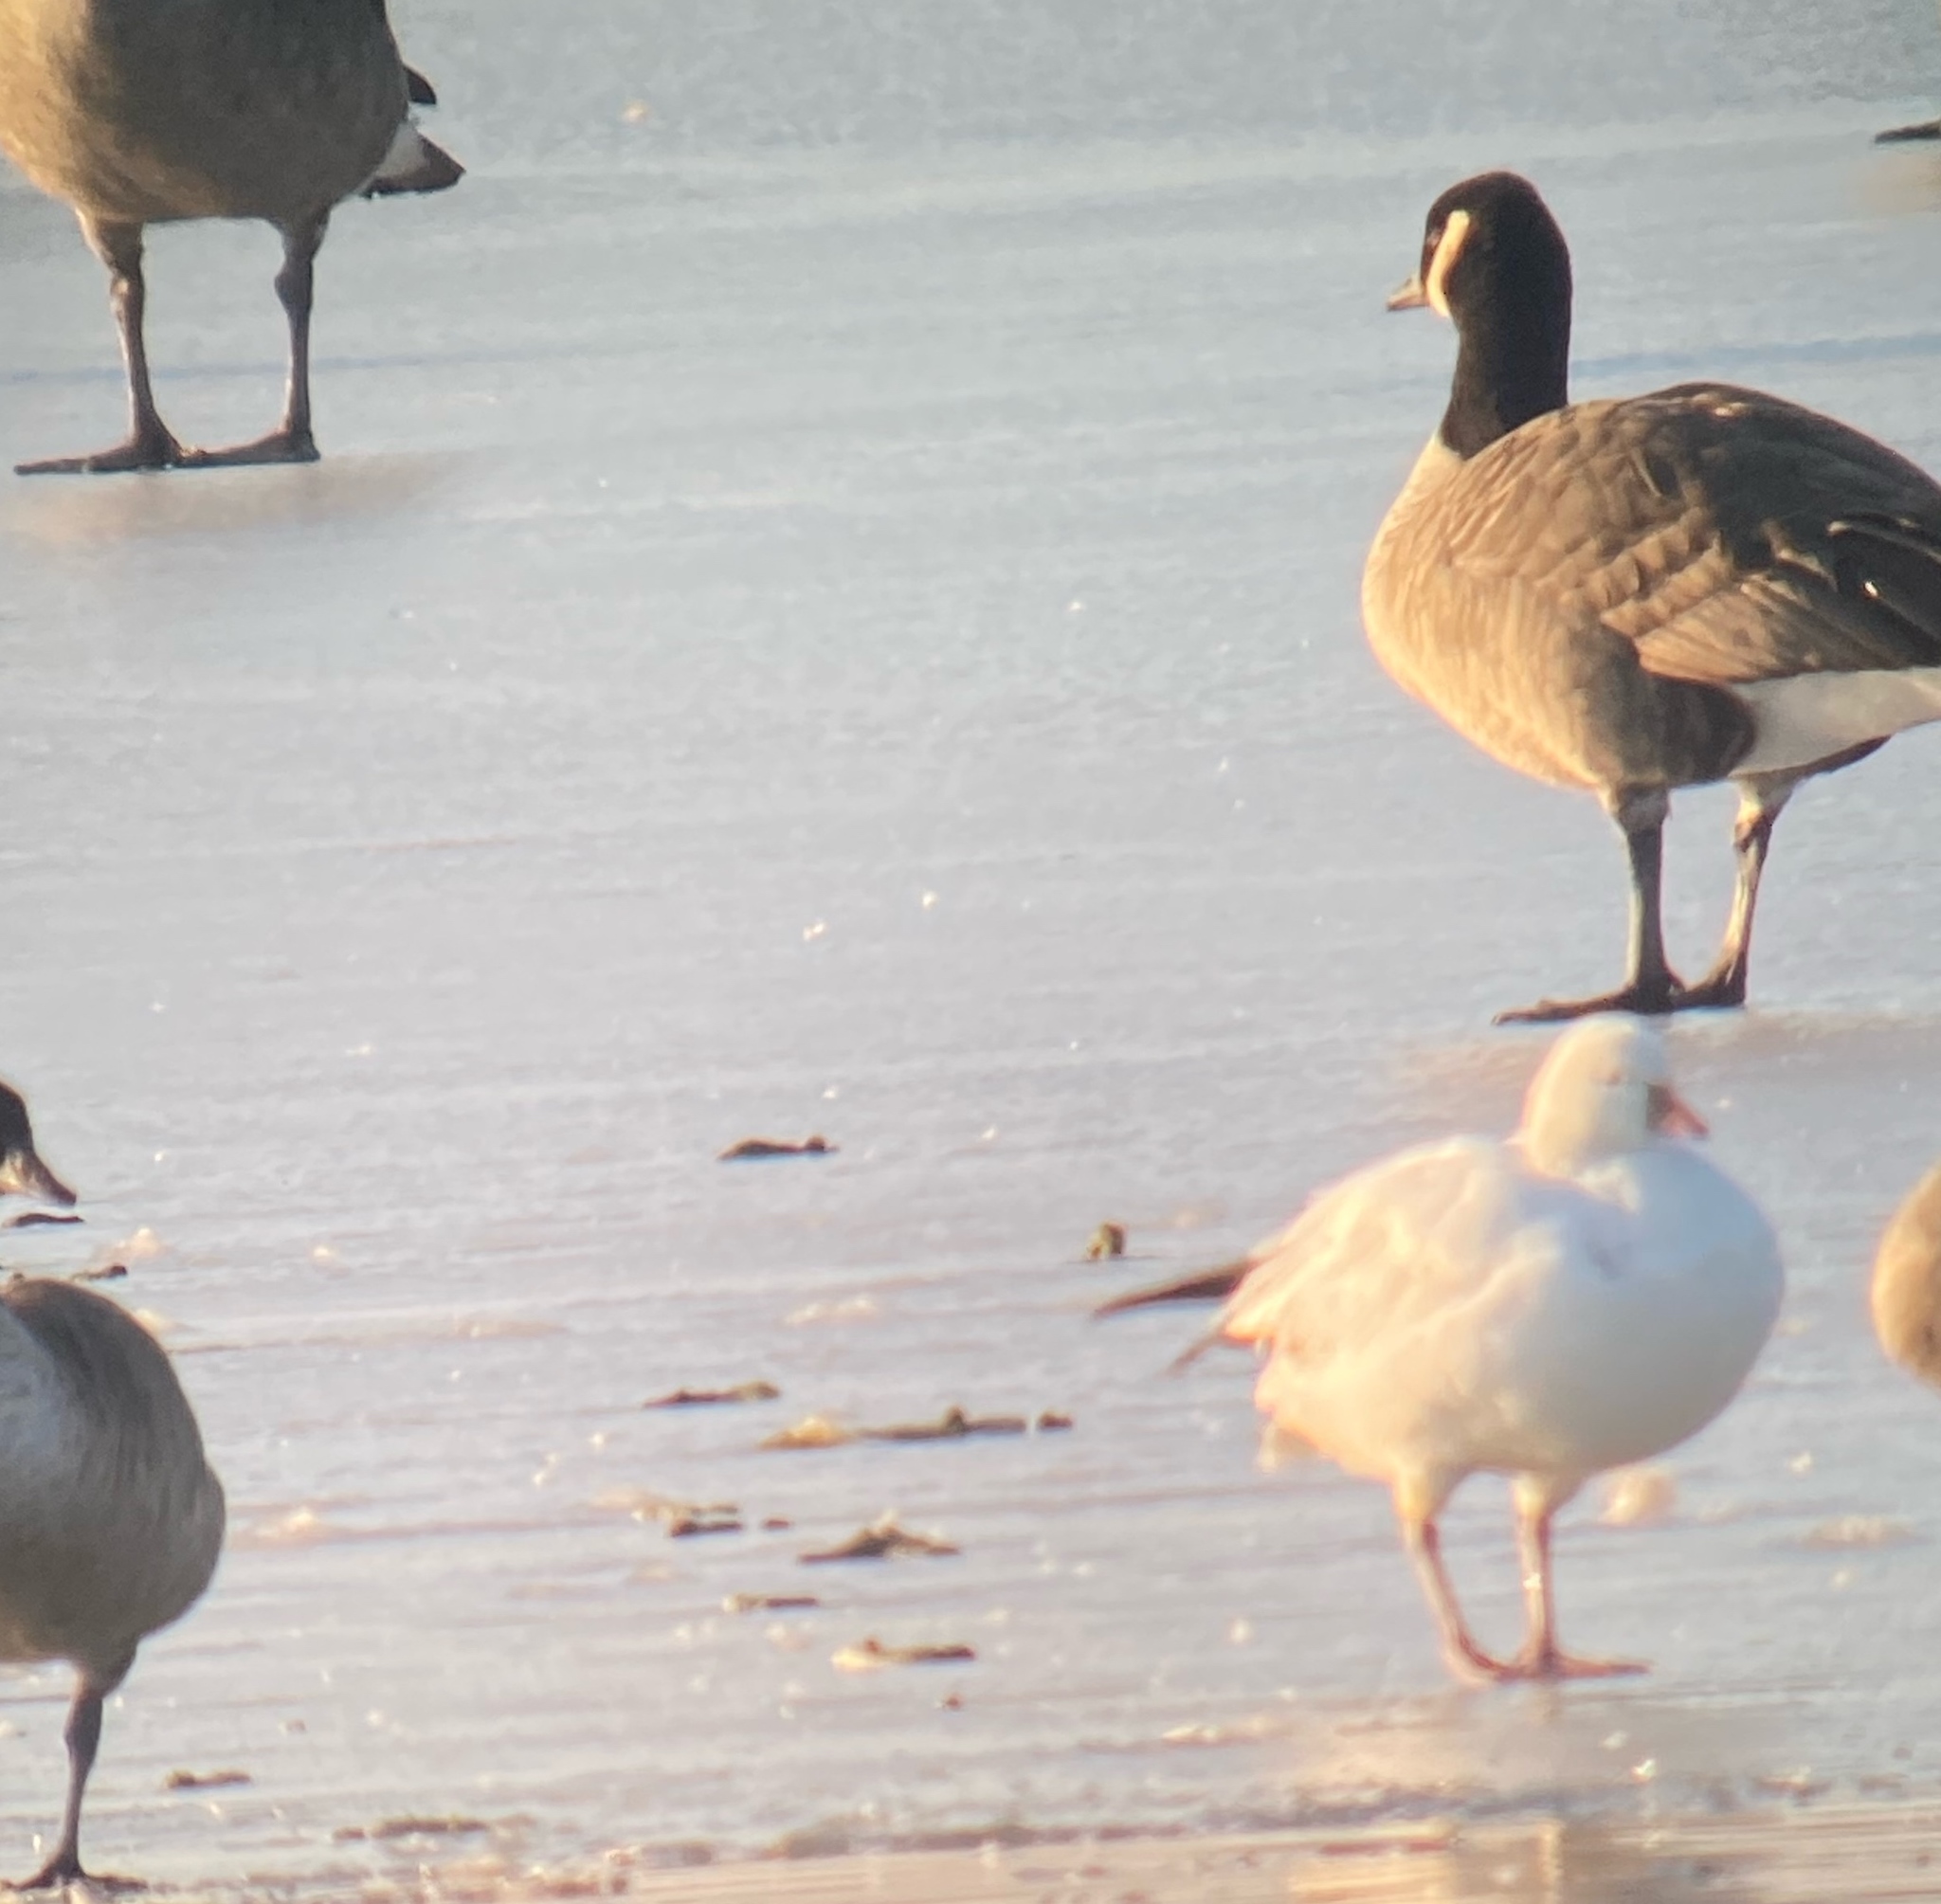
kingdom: Animalia
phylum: Chordata
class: Aves
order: Anseriformes
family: Anatidae
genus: Anser
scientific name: Anser rossii
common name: Ross's goose
